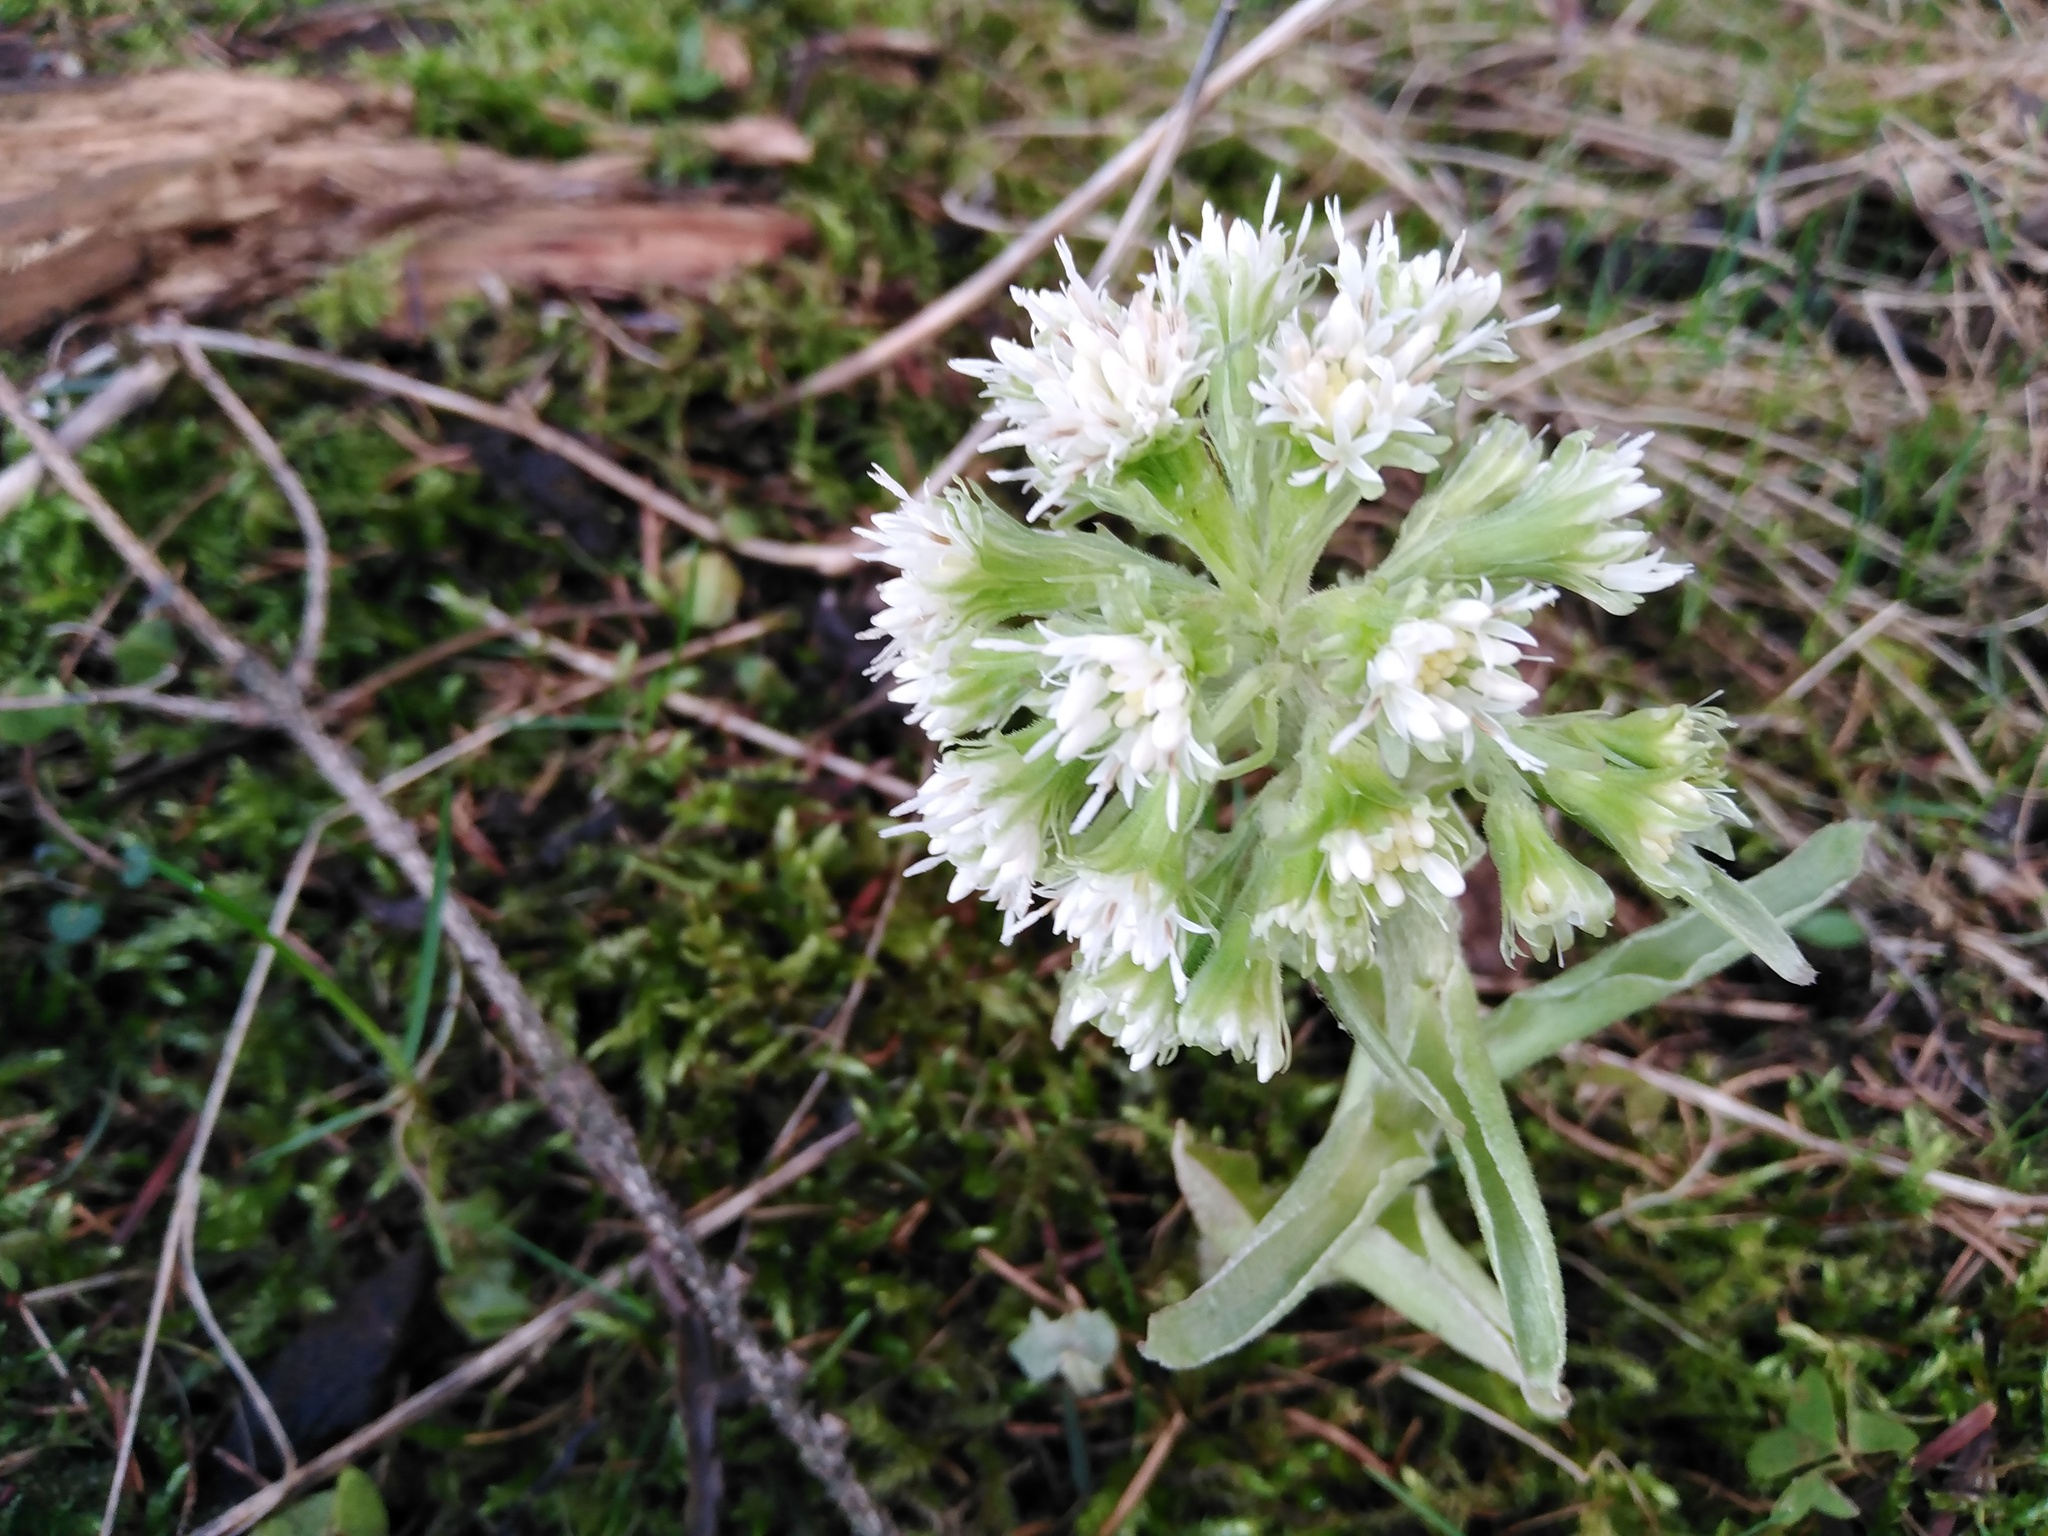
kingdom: Plantae
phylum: Tracheophyta
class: Magnoliopsida
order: Asterales
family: Asteraceae
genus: Petasites
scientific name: Petasites albus
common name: White butterbur
